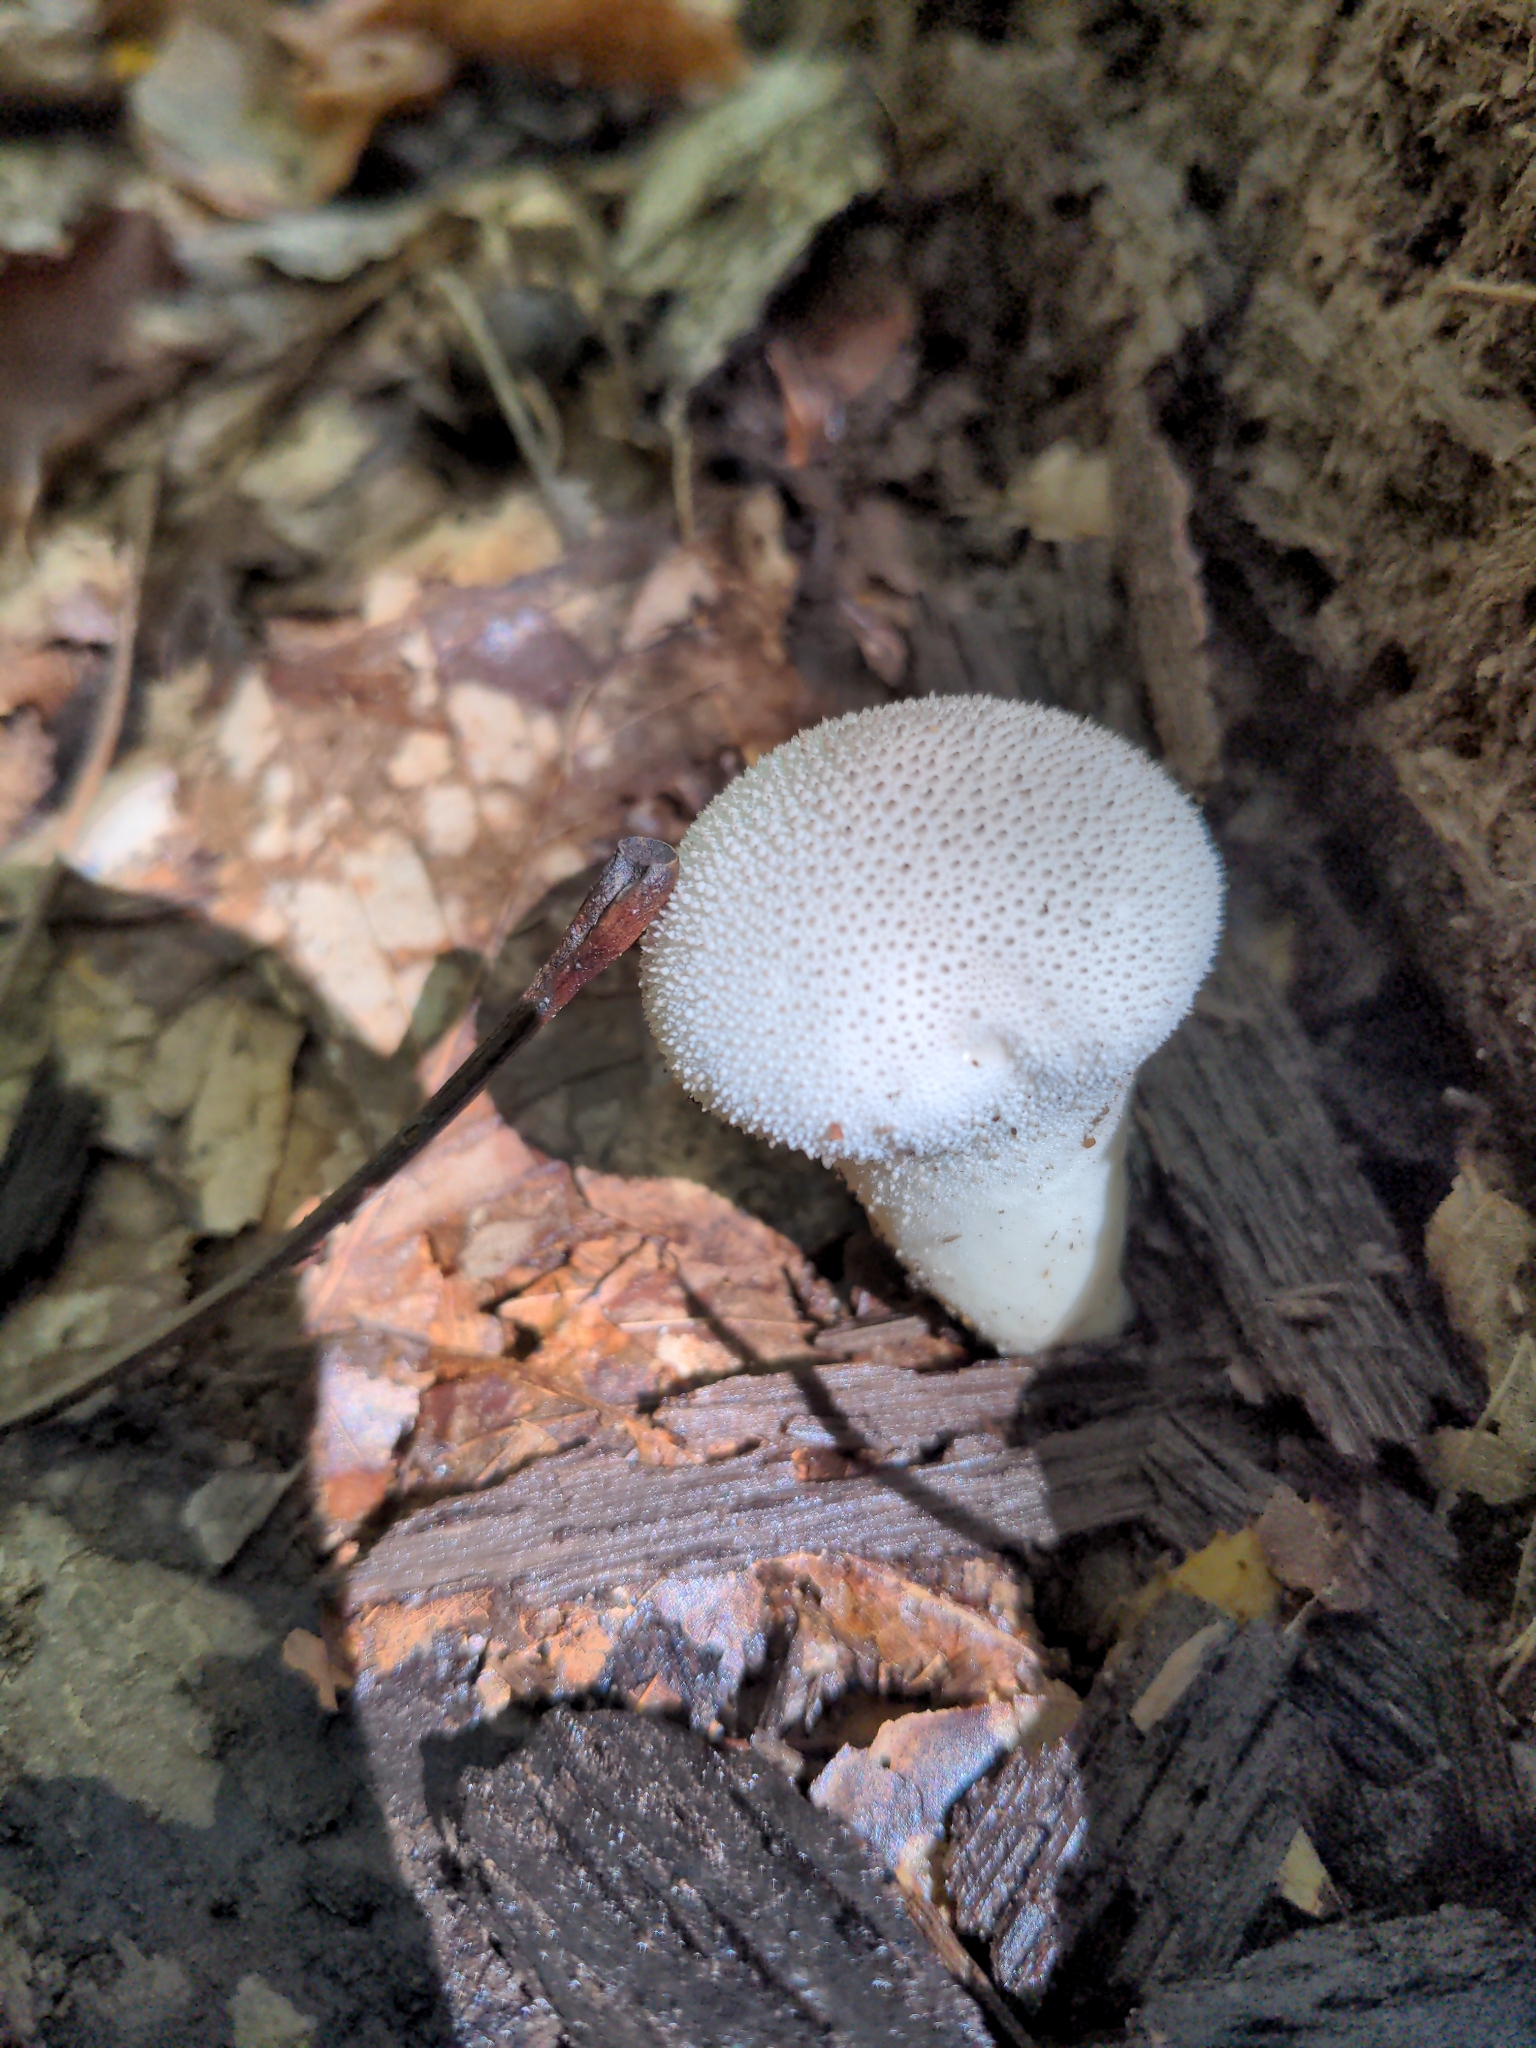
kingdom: Fungi
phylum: Basidiomycota
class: Agaricomycetes
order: Agaricales
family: Lycoperdaceae
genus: Lycoperdon
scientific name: Lycoperdon perlatum
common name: Common puffball
